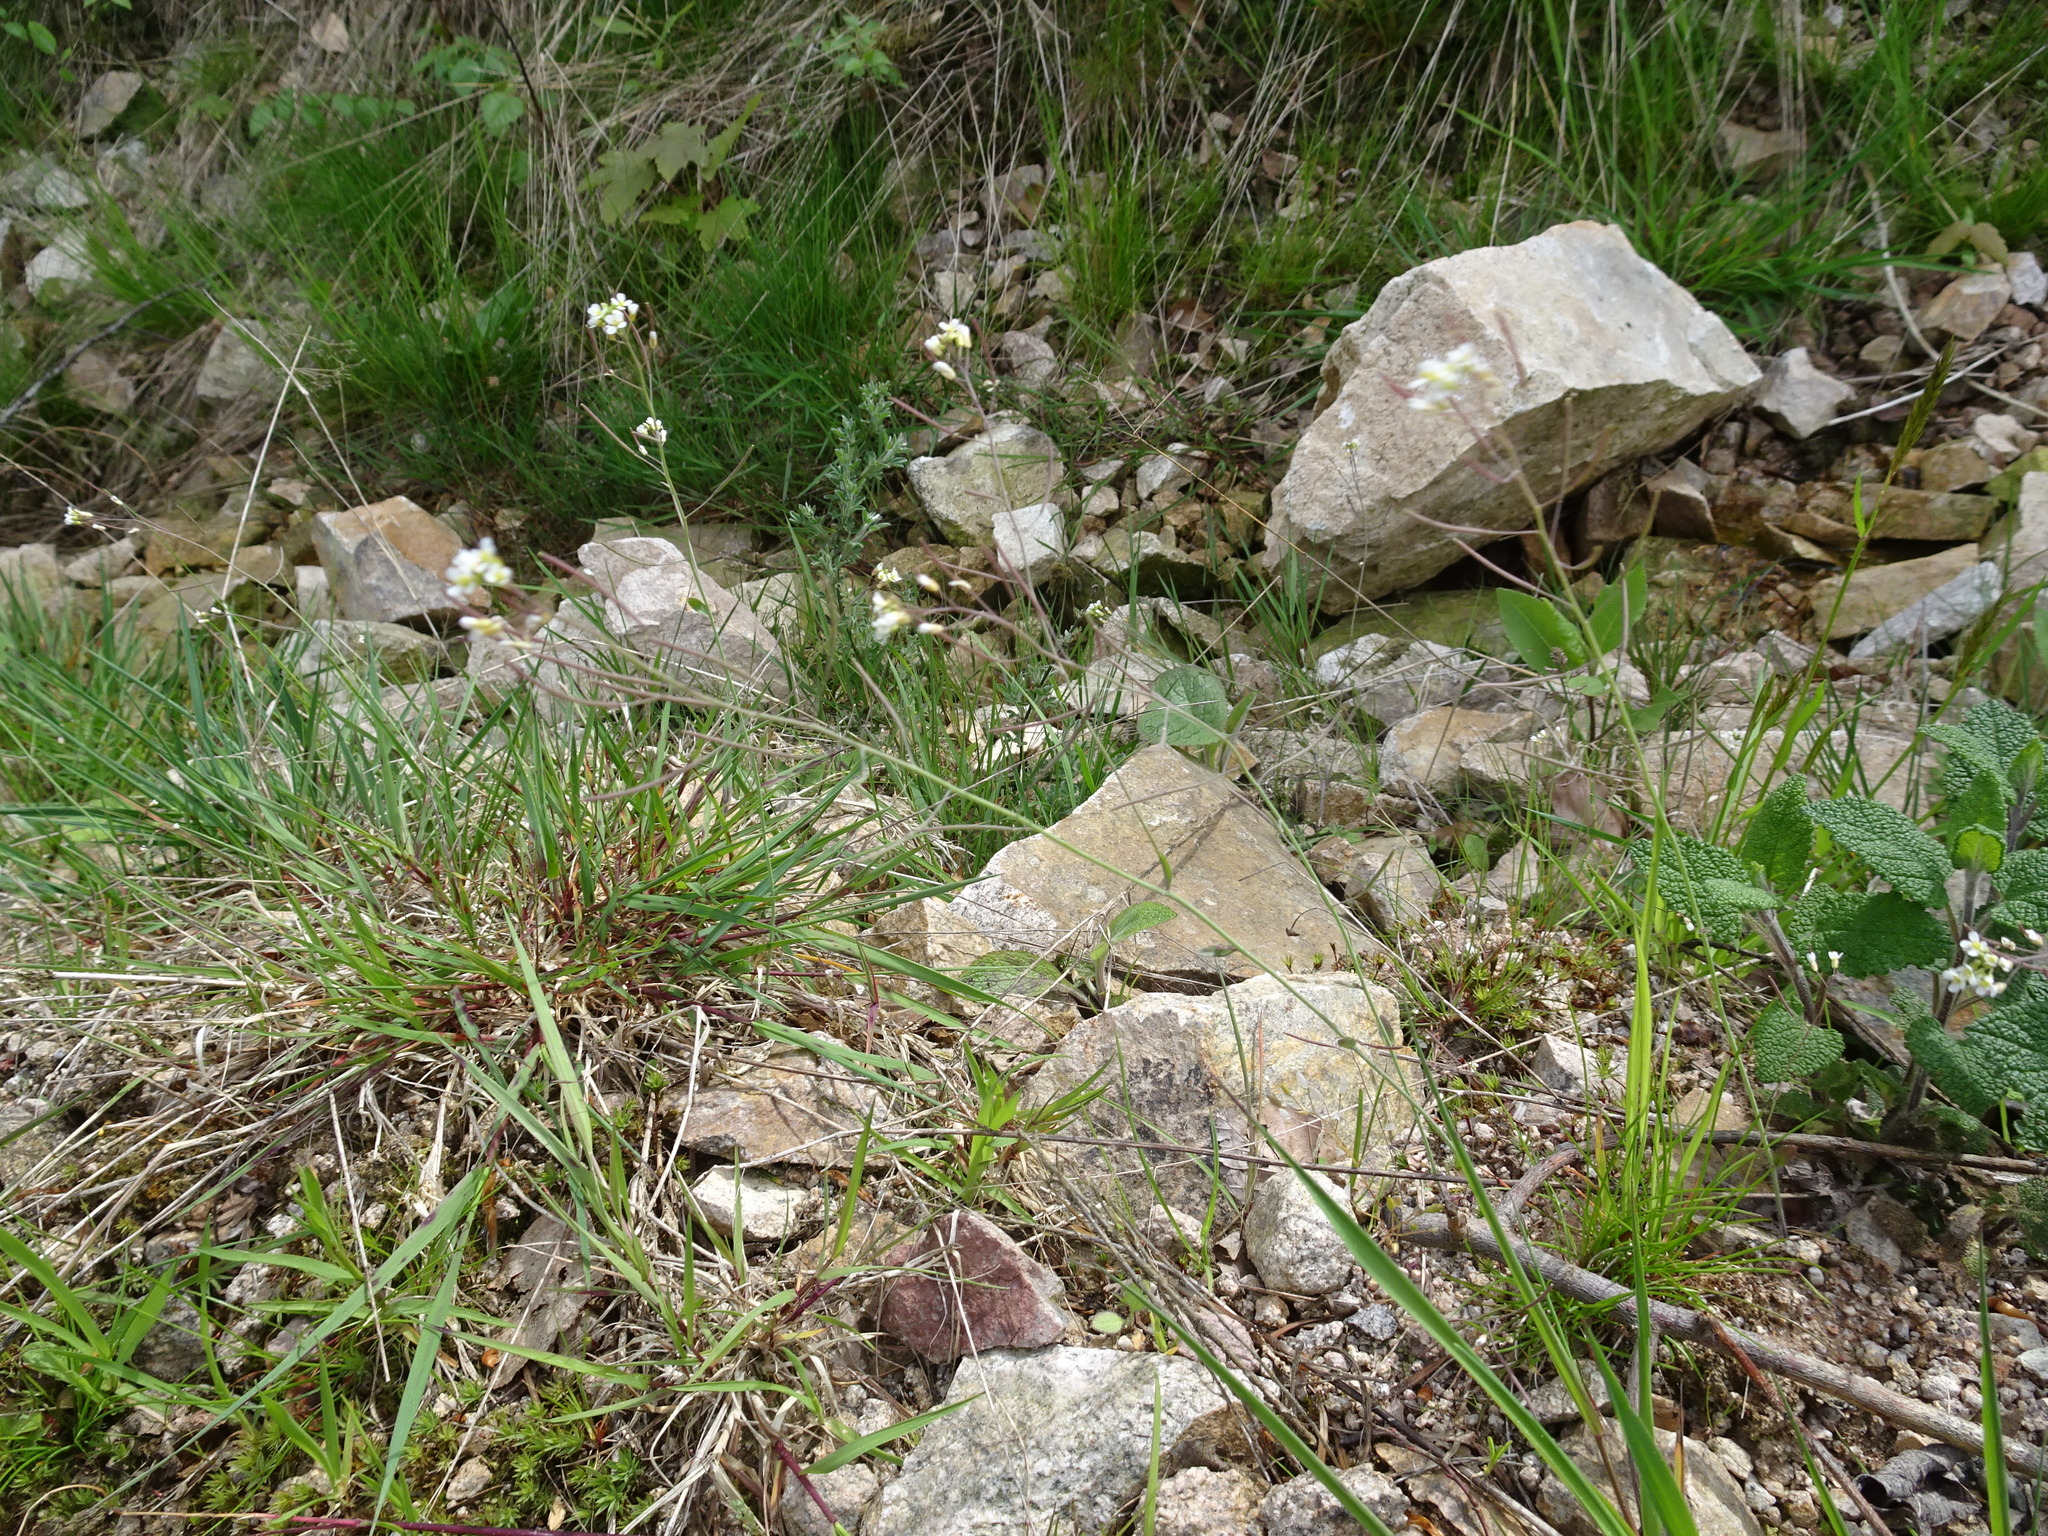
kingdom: Plantae
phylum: Tracheophyta
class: Magnoliopsida
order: Brassicales
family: Brassicaceae
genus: Arabidopsis
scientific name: Arabidopsis thaliana
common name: Thale cress
